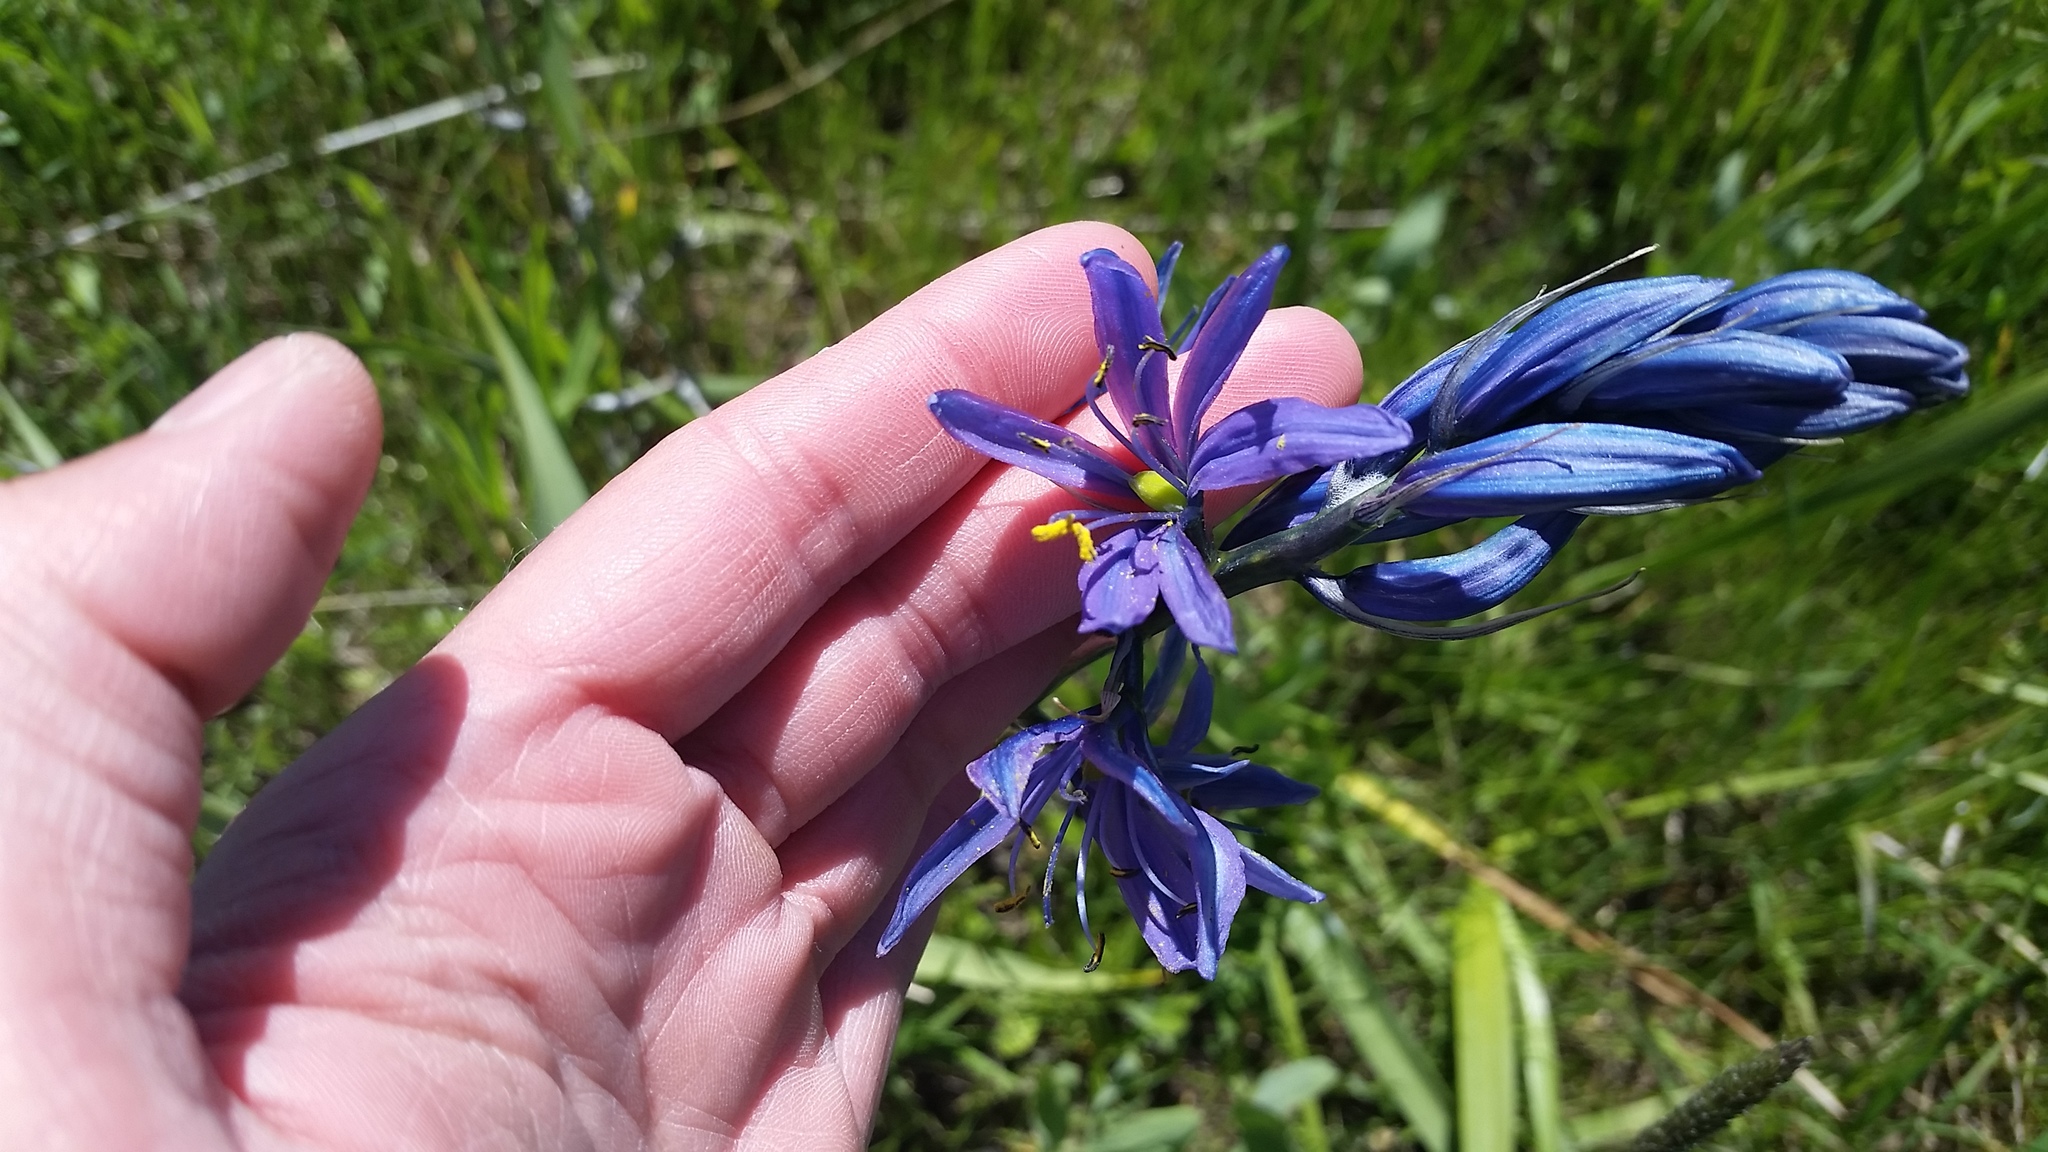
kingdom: Plantae
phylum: Tracheophyta
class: Liliopsida
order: Asparagales
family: Asparagaceae
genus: Camassia
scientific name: Camassia quamash
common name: Common camas
